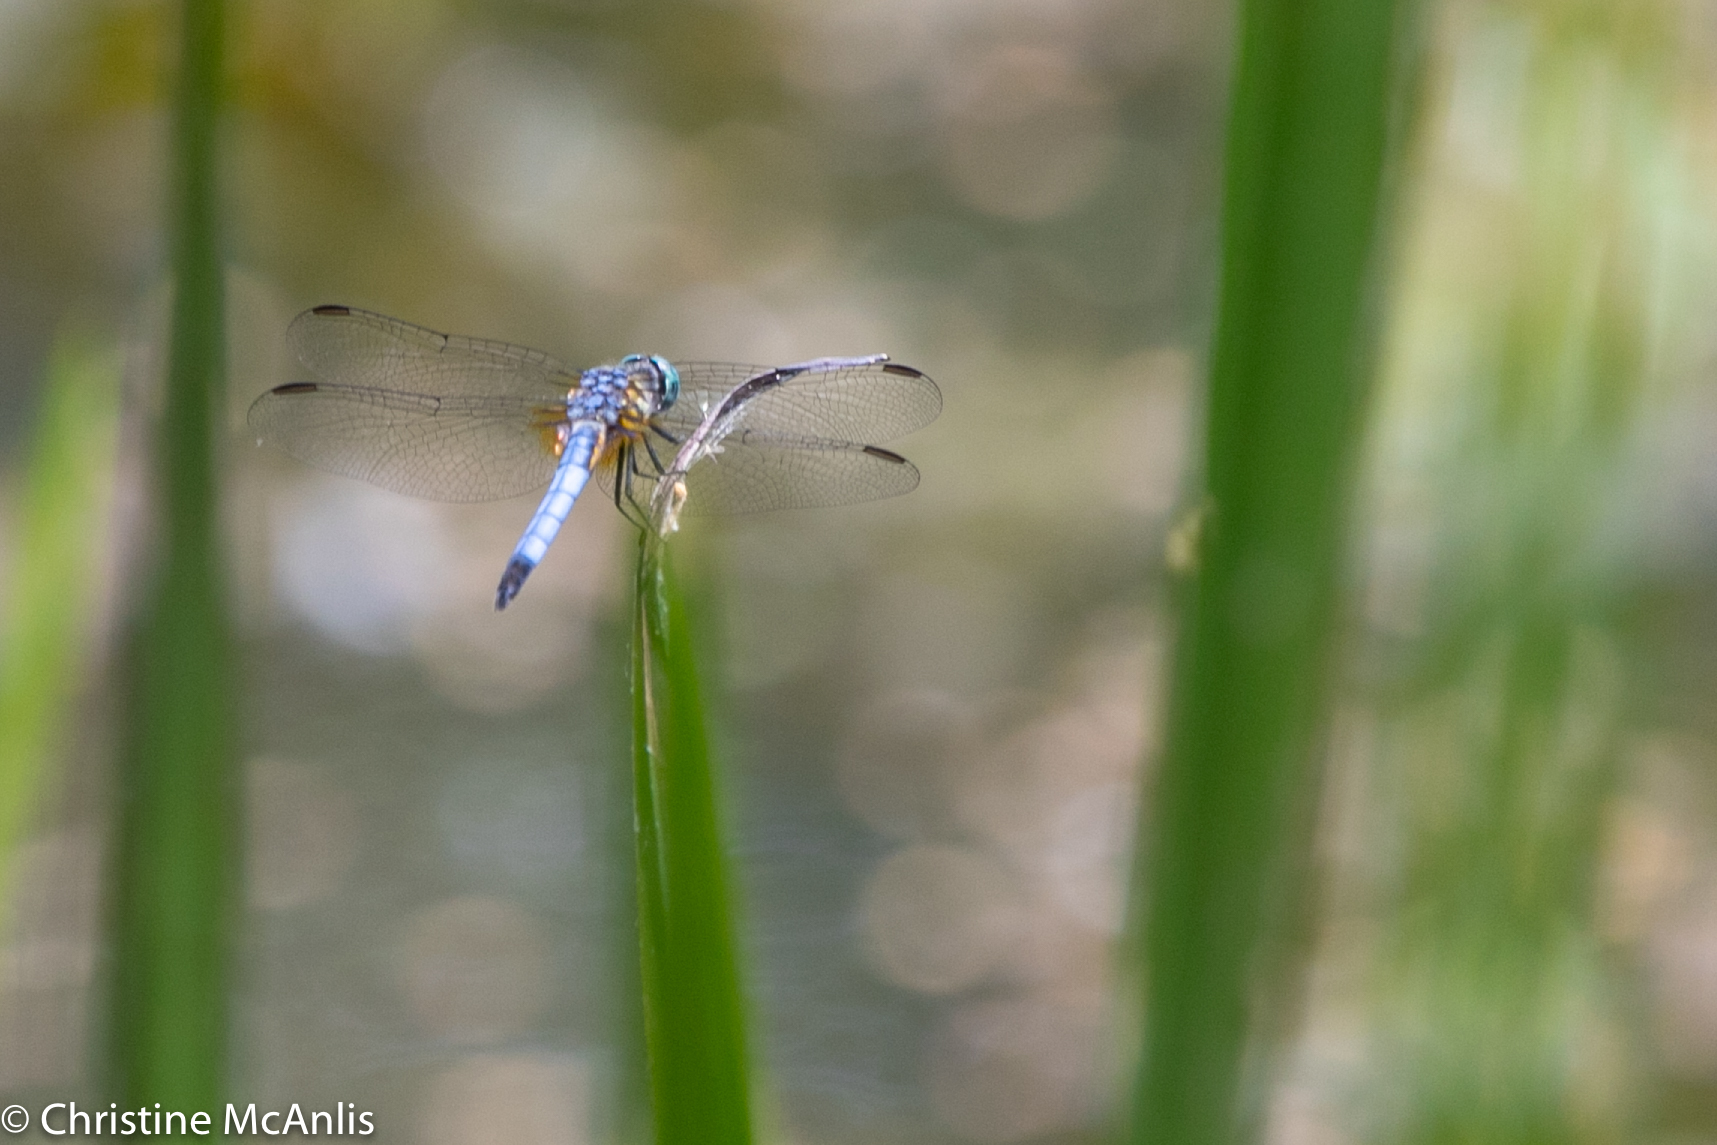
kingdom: Animalia
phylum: Arthropoda
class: Insecta
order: Odonata
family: Libellulidae
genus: Pachydiplax
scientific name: Pachydiplax longipennis
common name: Blue dasher
